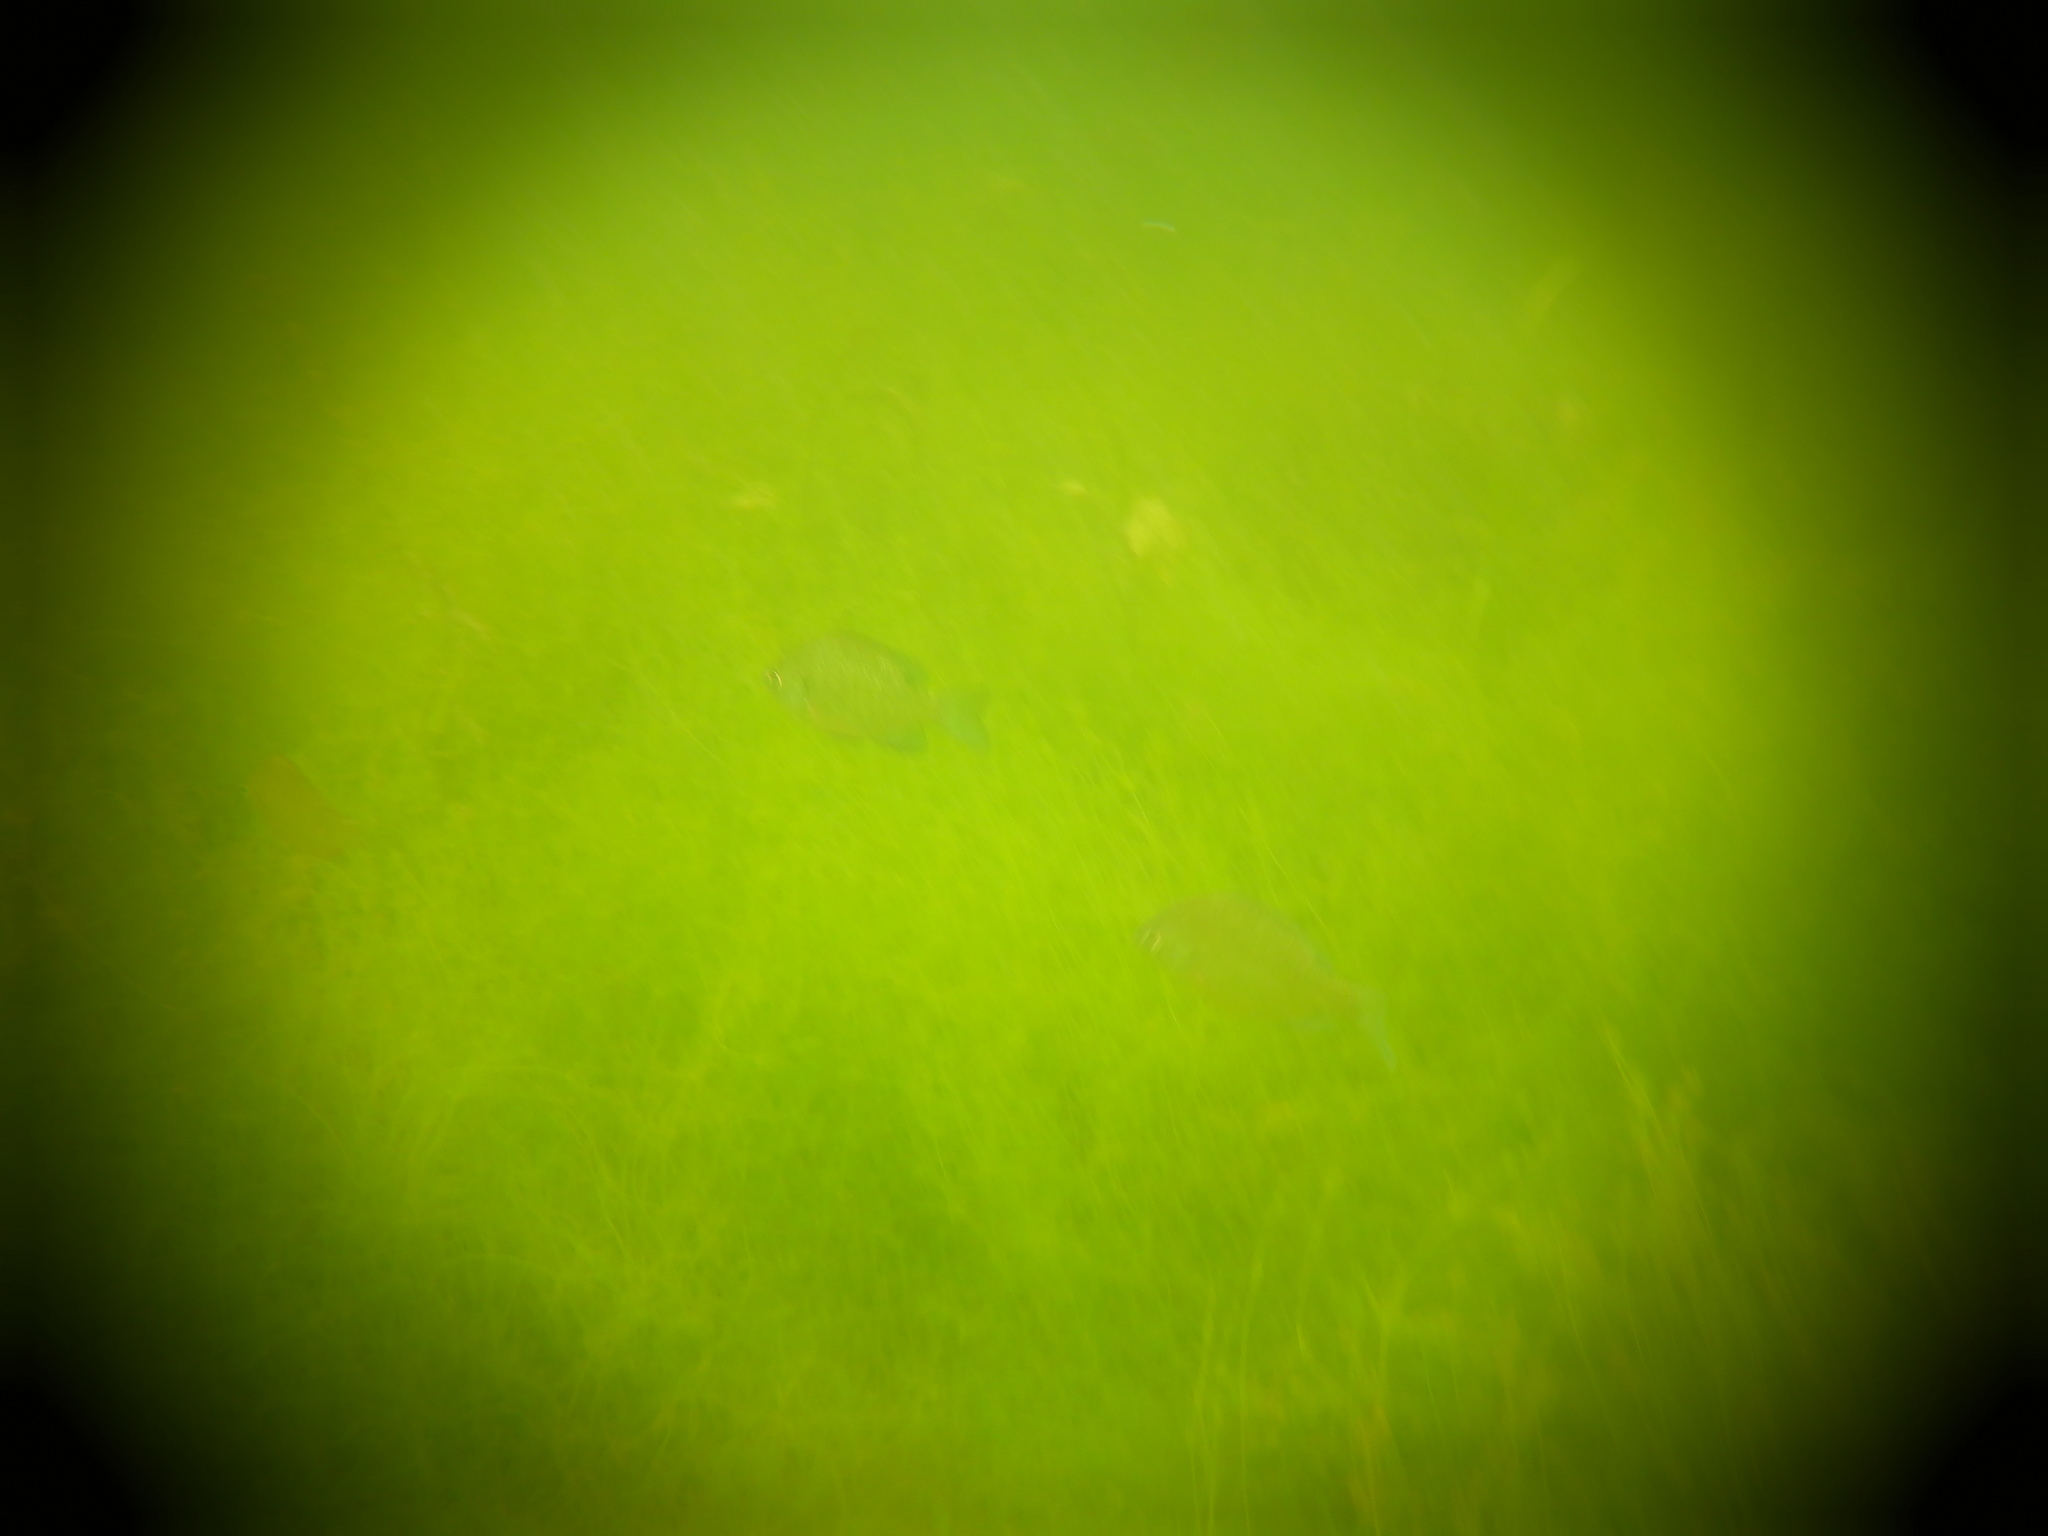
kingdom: Animalia
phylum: Chordata
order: Perciformes
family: Centrarchidae
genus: Lepomis
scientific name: Lepomis macrochirus
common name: Bluegill
